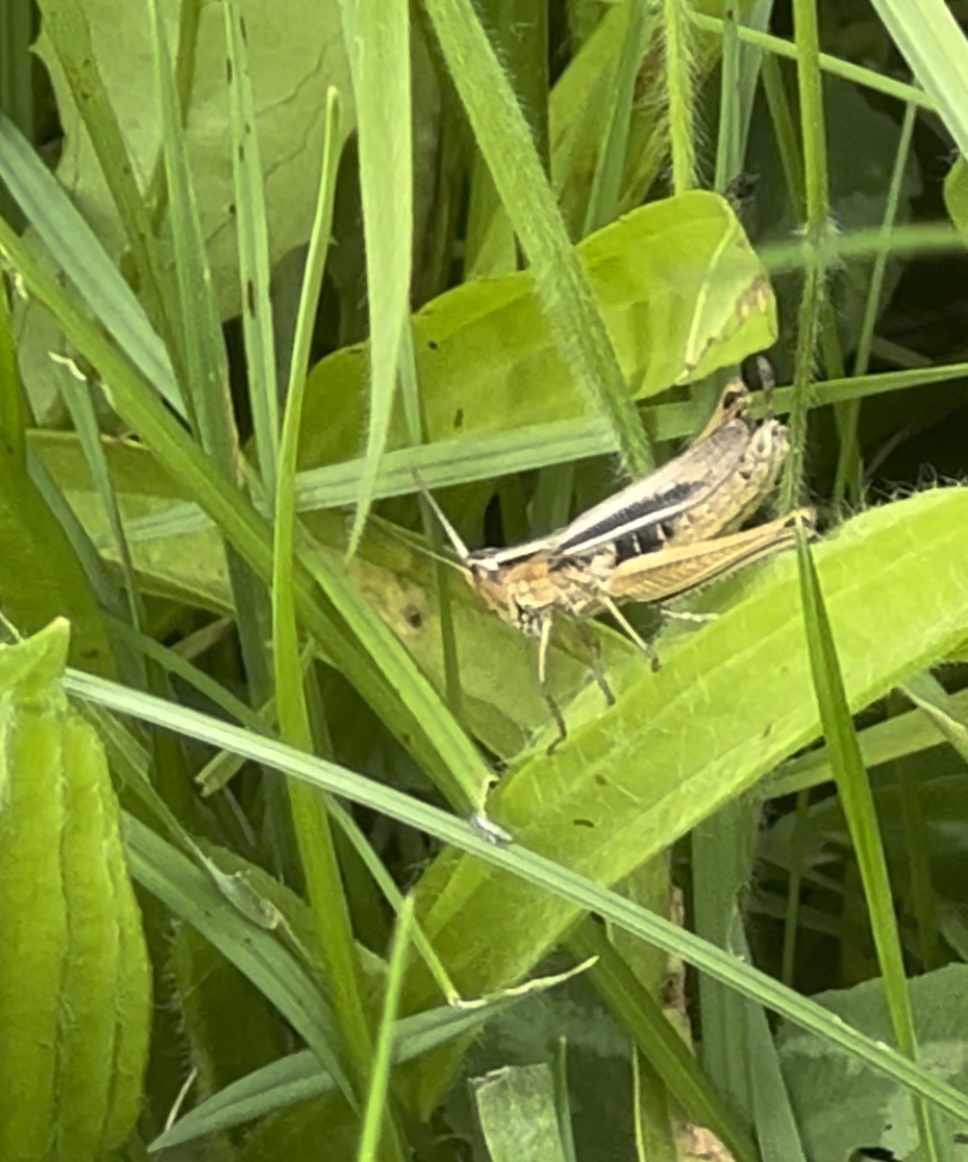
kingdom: Animalia
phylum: Arthropoda
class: Insecta
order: Orthoptera
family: Acrididae
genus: Chorthippus
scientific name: Chorthippus albomarginatus
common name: Lesser marsh grasshopper
